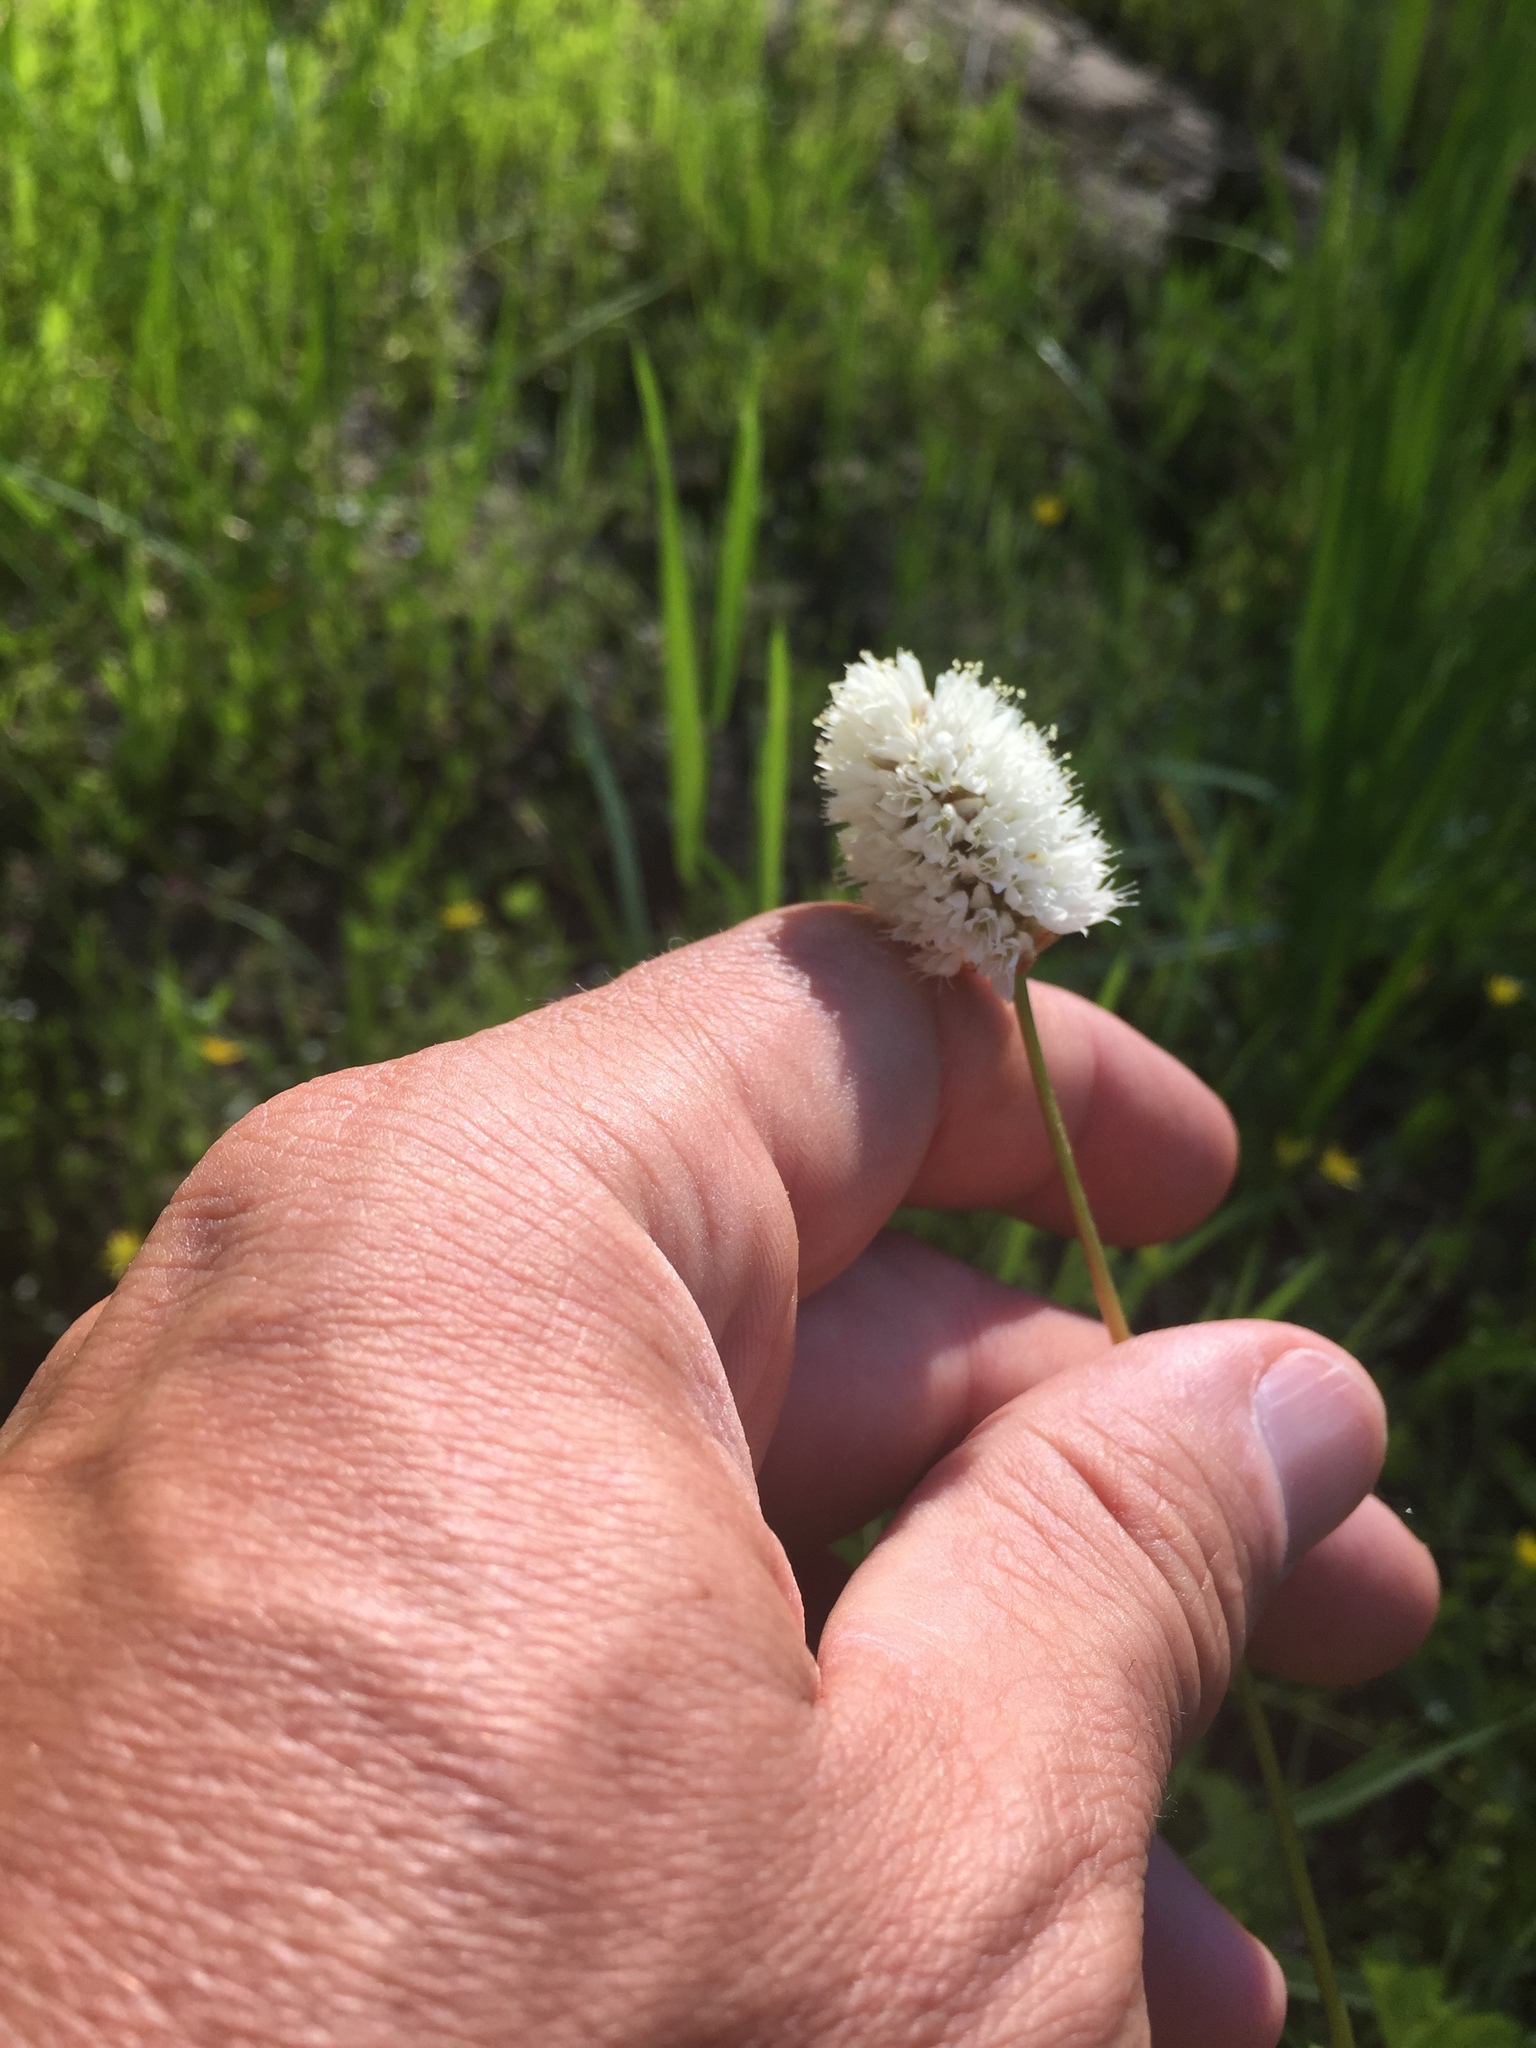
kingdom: Plantae
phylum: Tracheophyta
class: Magnoliopsida
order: Caryophyllales
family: Polygonaceae
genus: Bistorta
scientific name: Bistorta bistortoides
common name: American bistort
